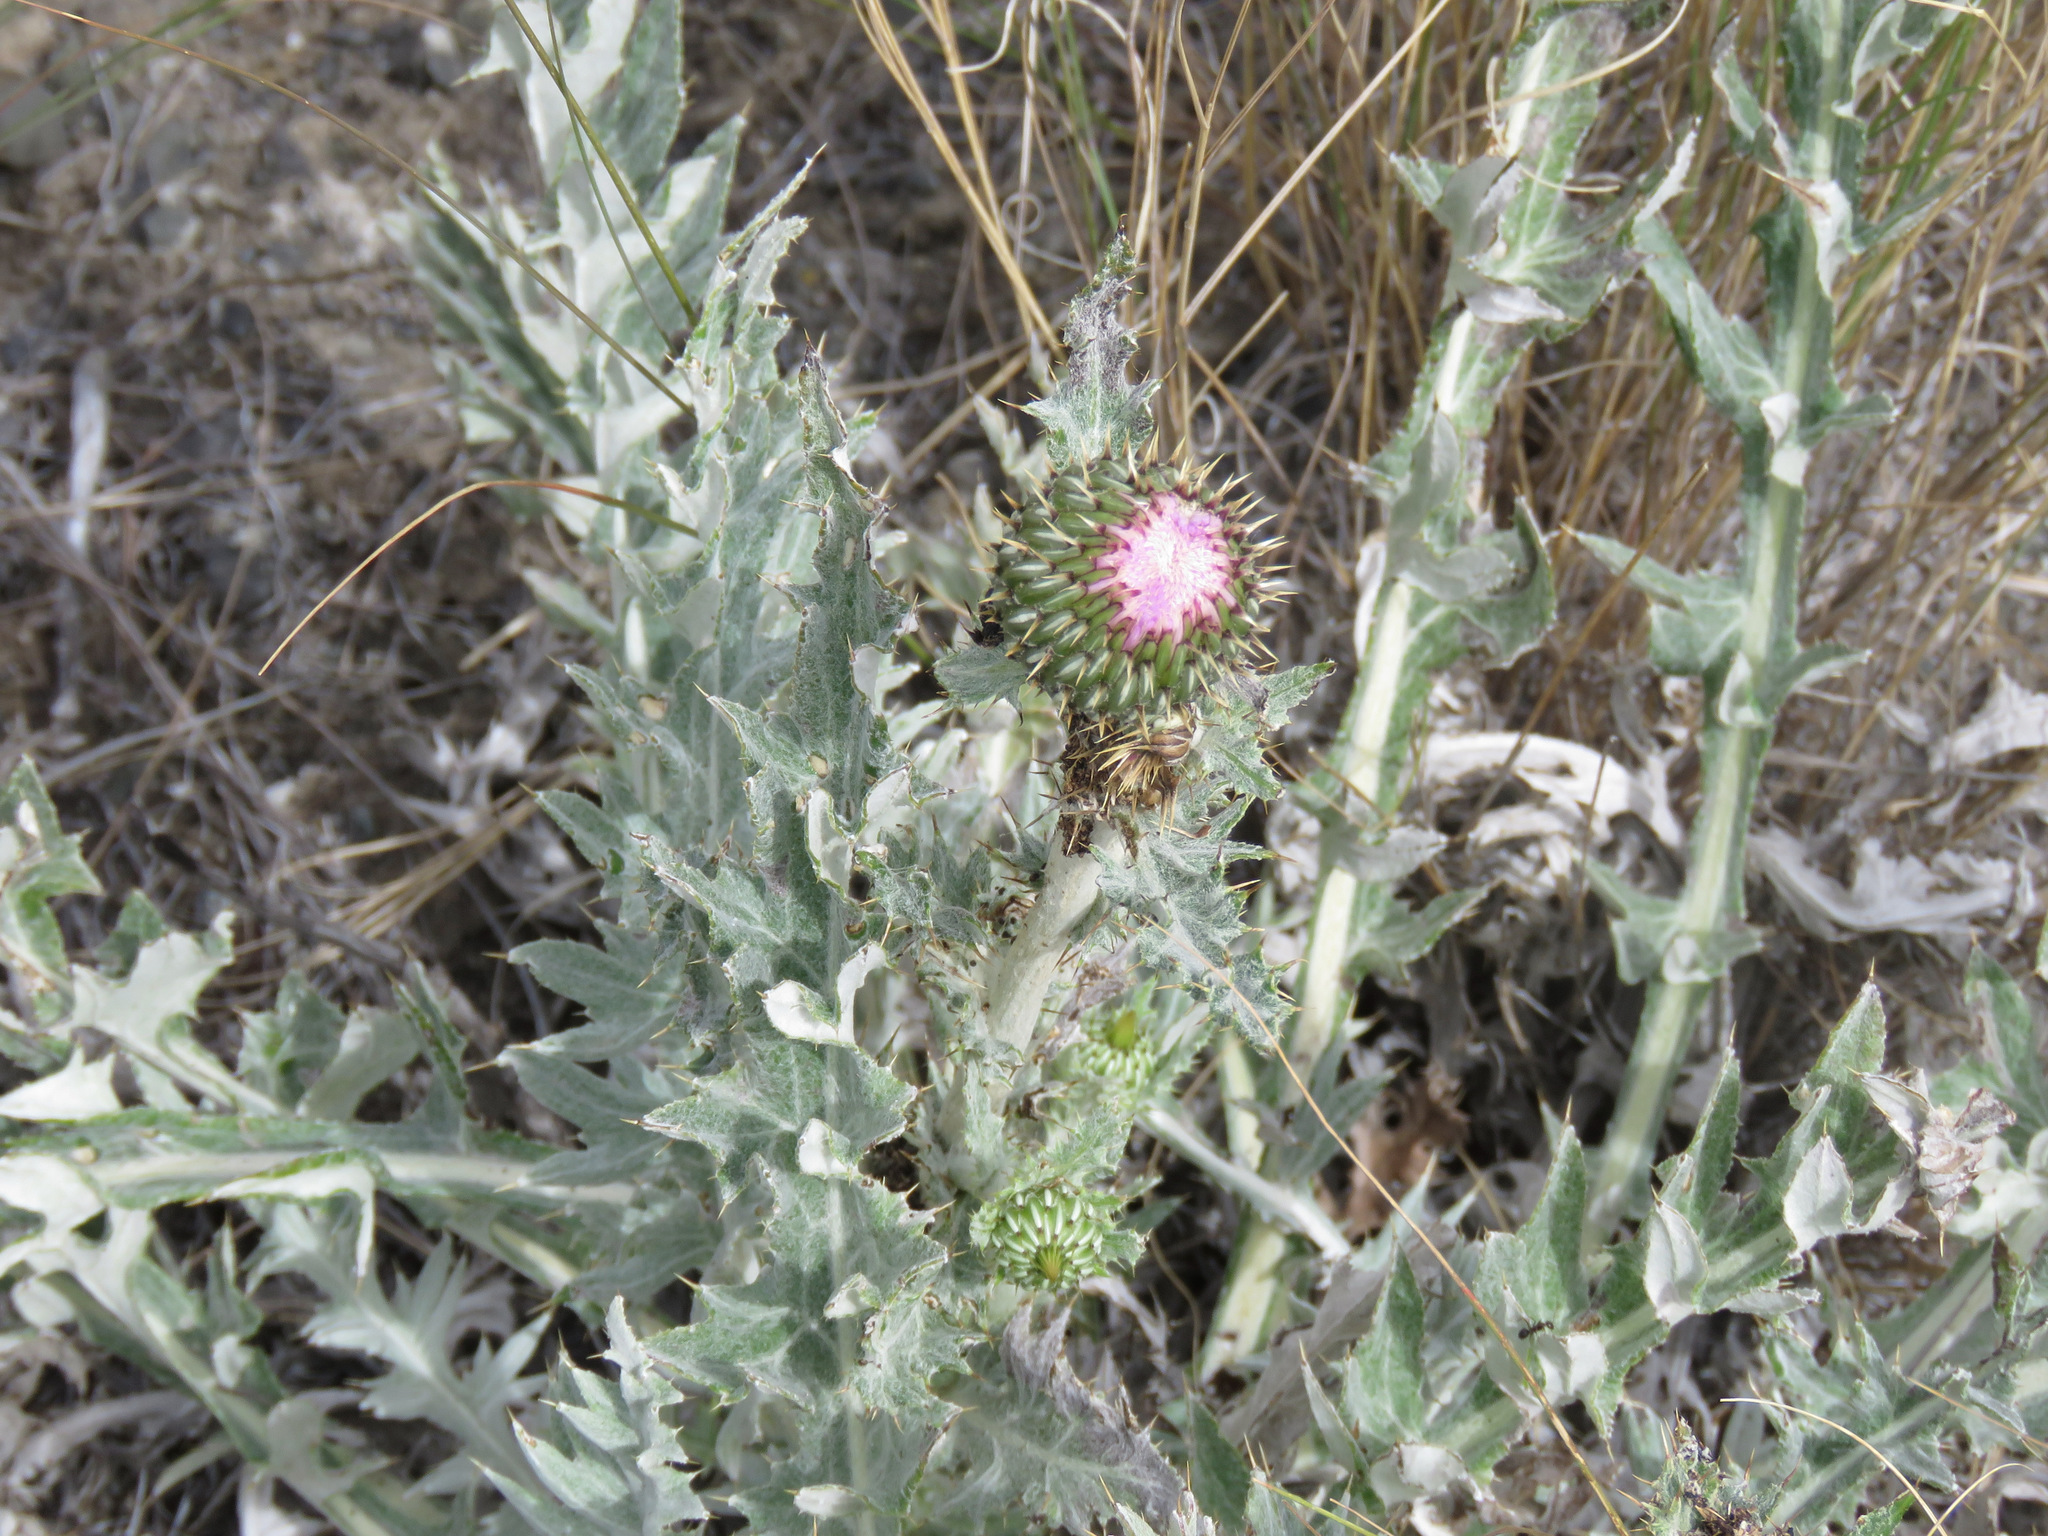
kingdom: Plantae
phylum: Tracheophyta
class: Magnoliopsida
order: Asterales
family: Asteraceae
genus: Cirsium
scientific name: Cirsium undulatum
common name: Pasture thistle
